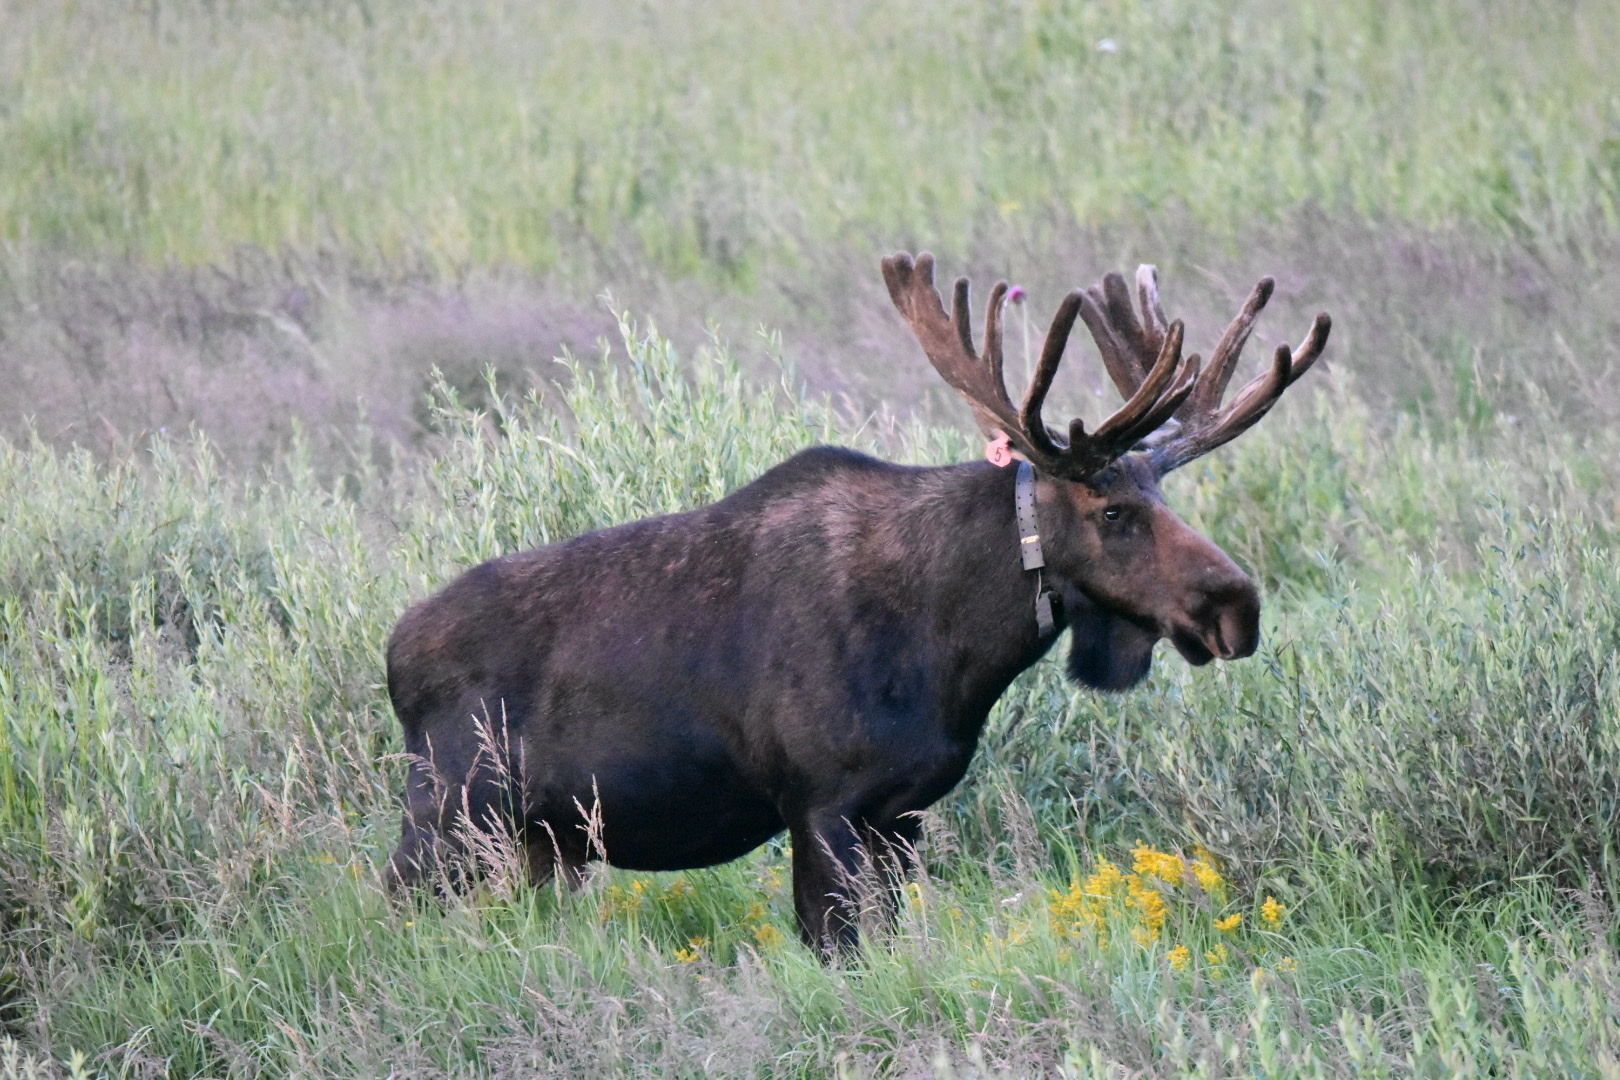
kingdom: Animalia
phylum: Chordata
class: Mammalia
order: Artiodactyla
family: Cervidae
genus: Alces
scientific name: Alces alces
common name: Moose
